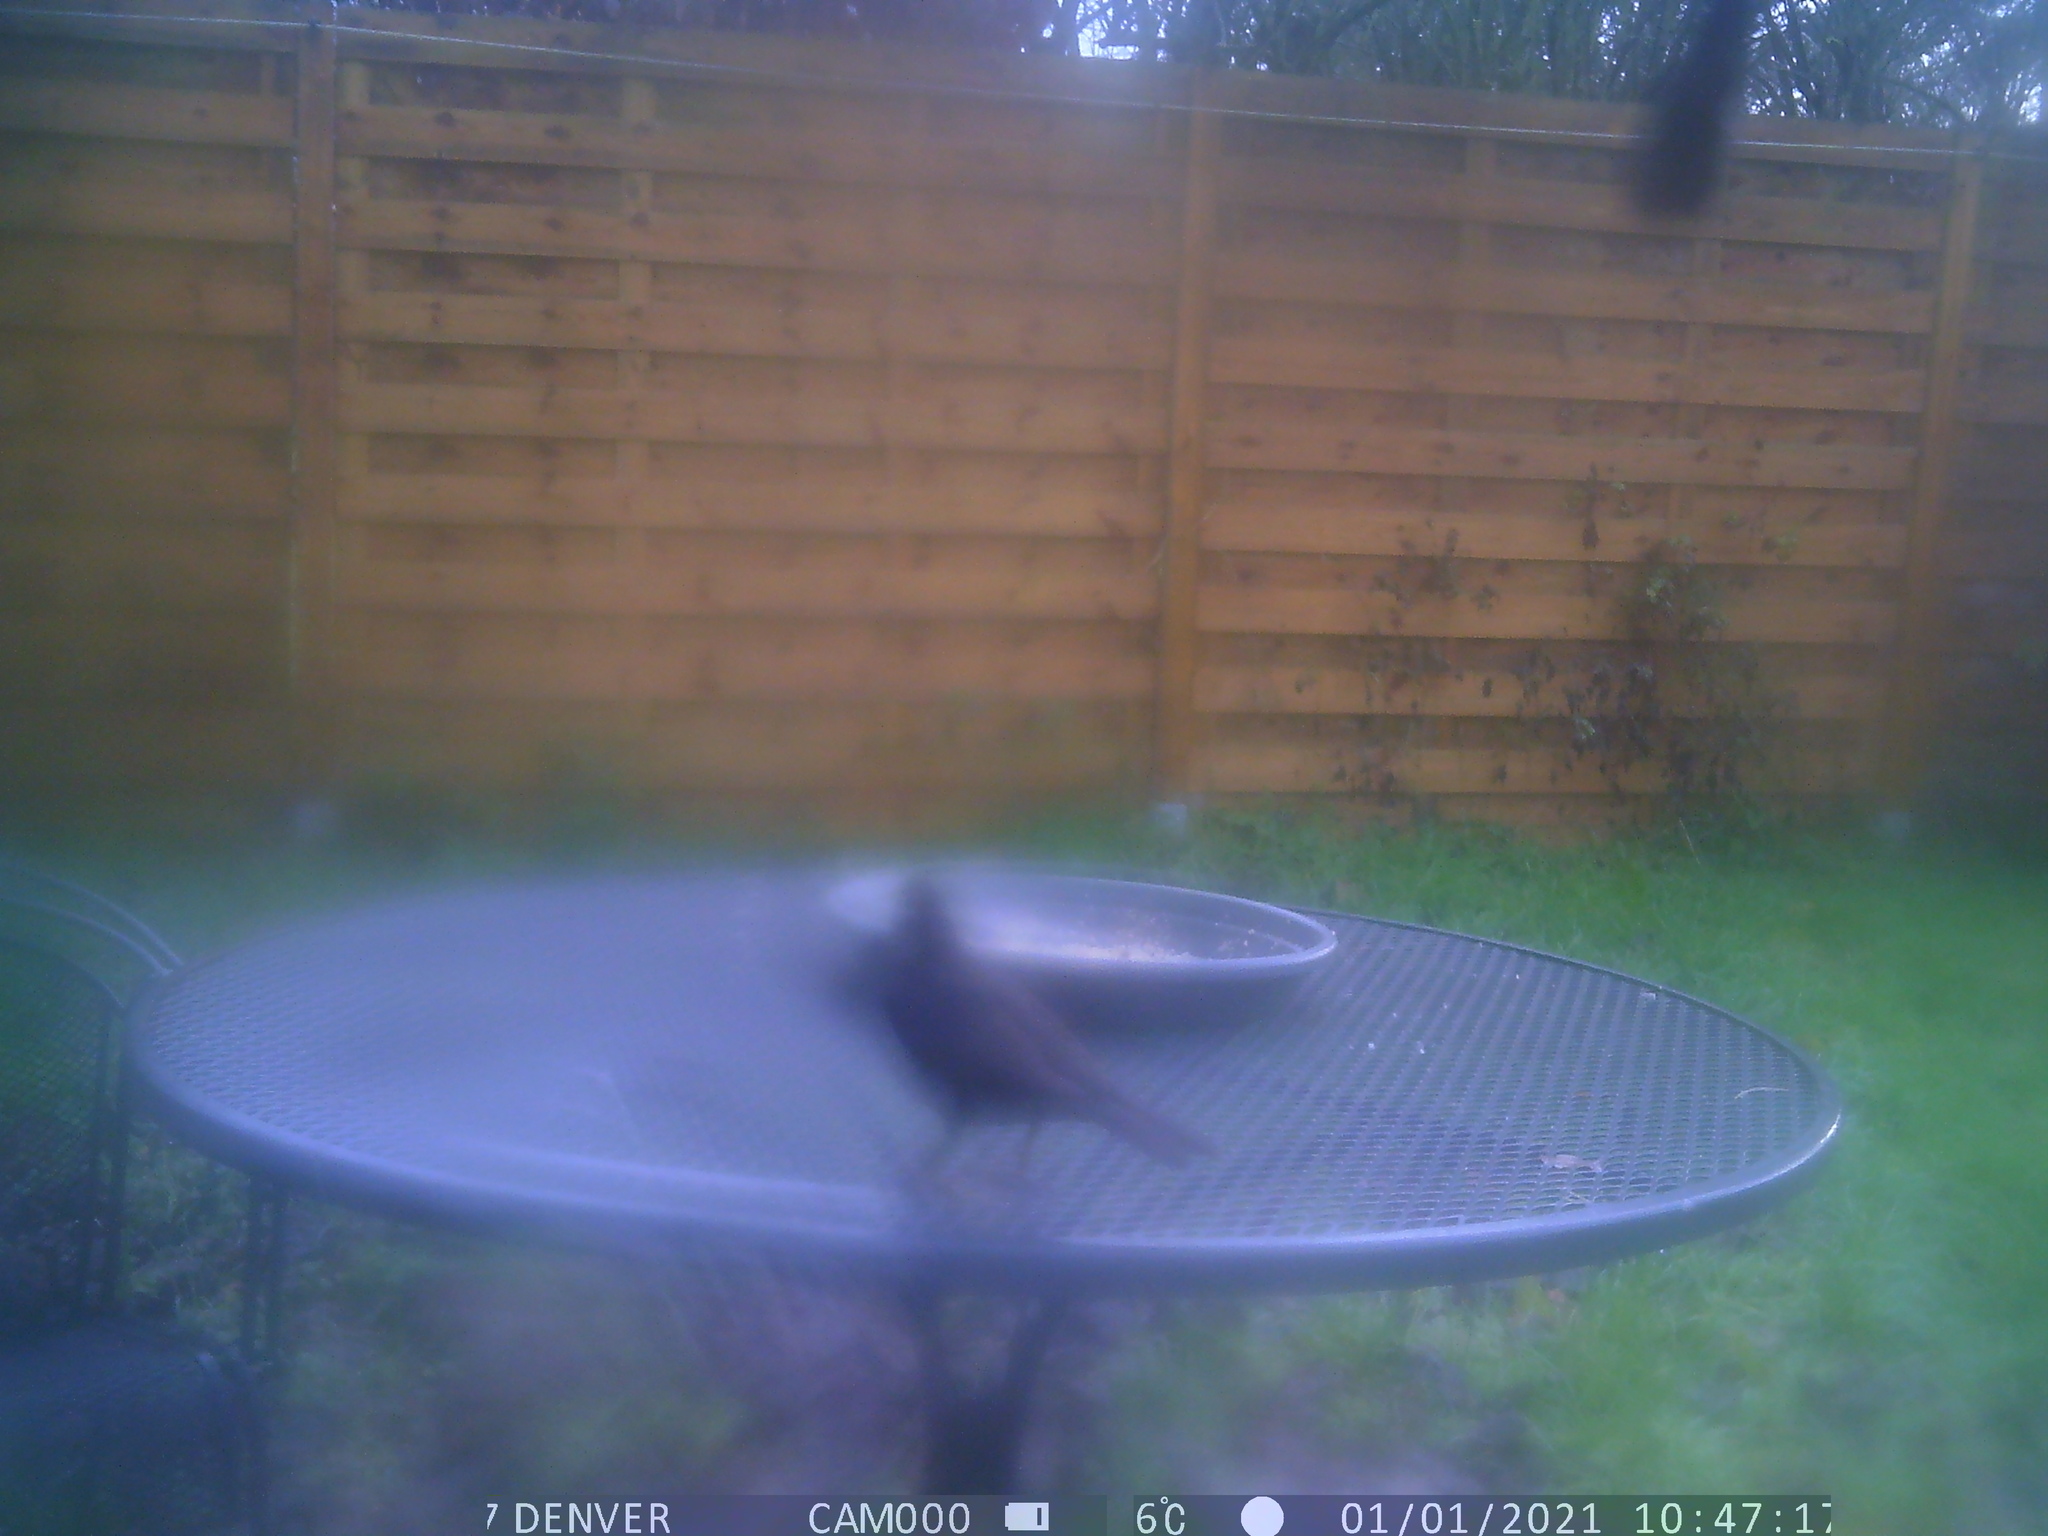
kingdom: Animalia
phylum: Chordata
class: Aves
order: Passeriformes
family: Turdidae
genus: Turdus
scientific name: Turdus merula
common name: Common blackbird
